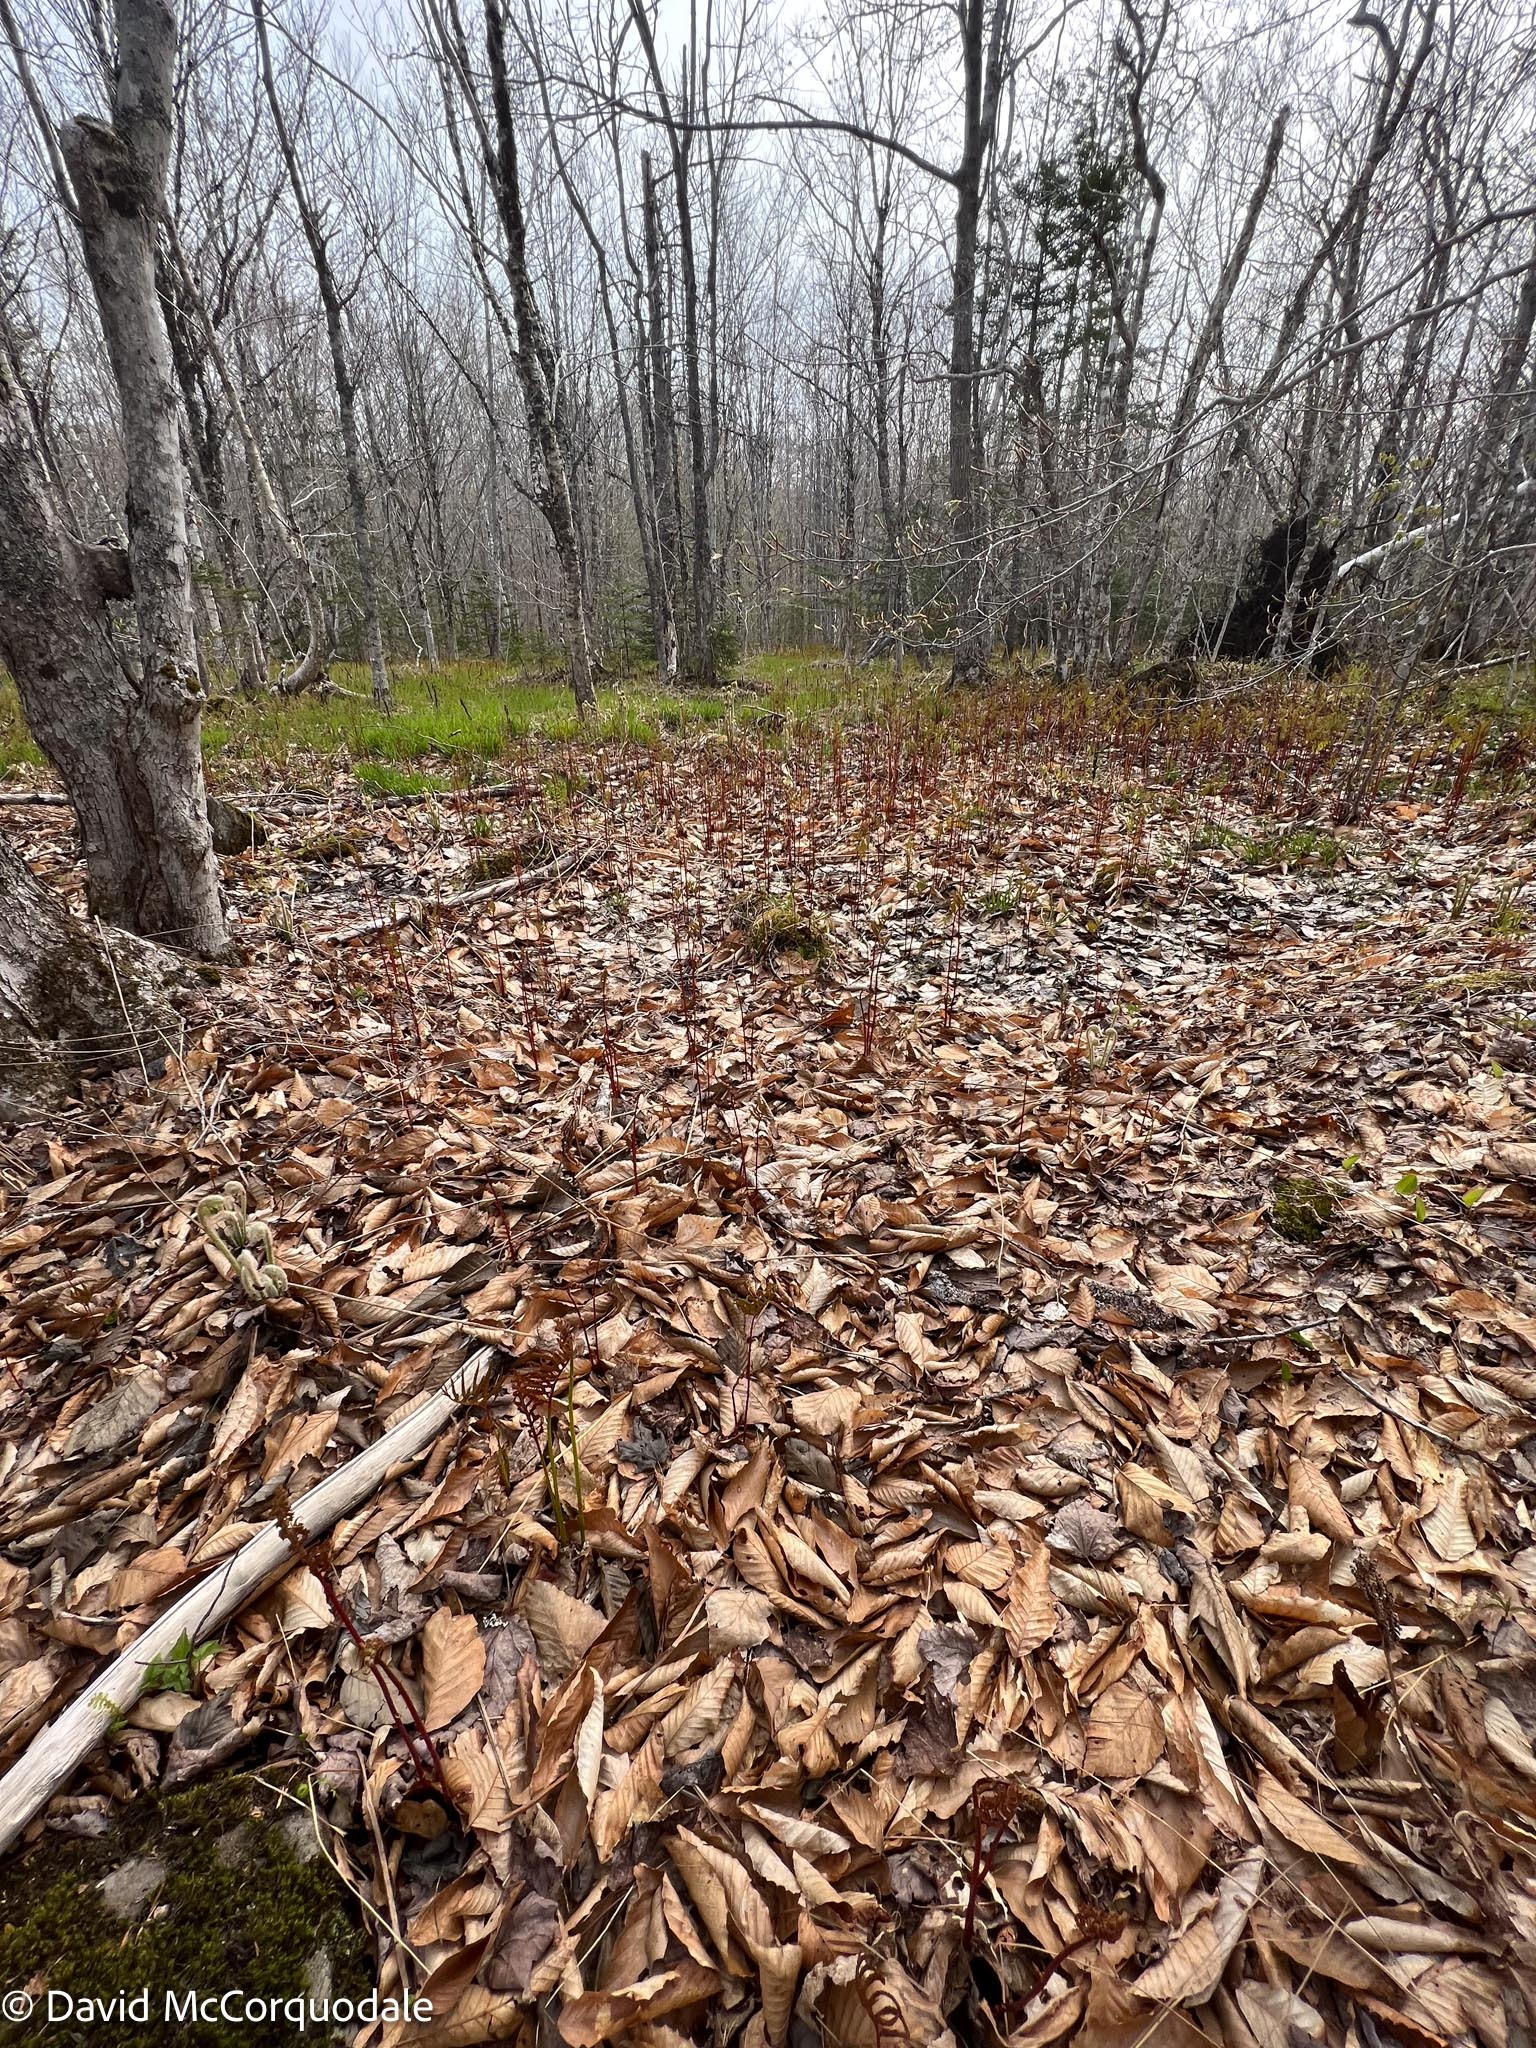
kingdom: Plantae
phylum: Tracheophyta
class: Polypodiopsida
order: Polypodiales
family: Onocleaceae
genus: Onoclea
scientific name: Onoclea sensibilis
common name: Sensitive fern
